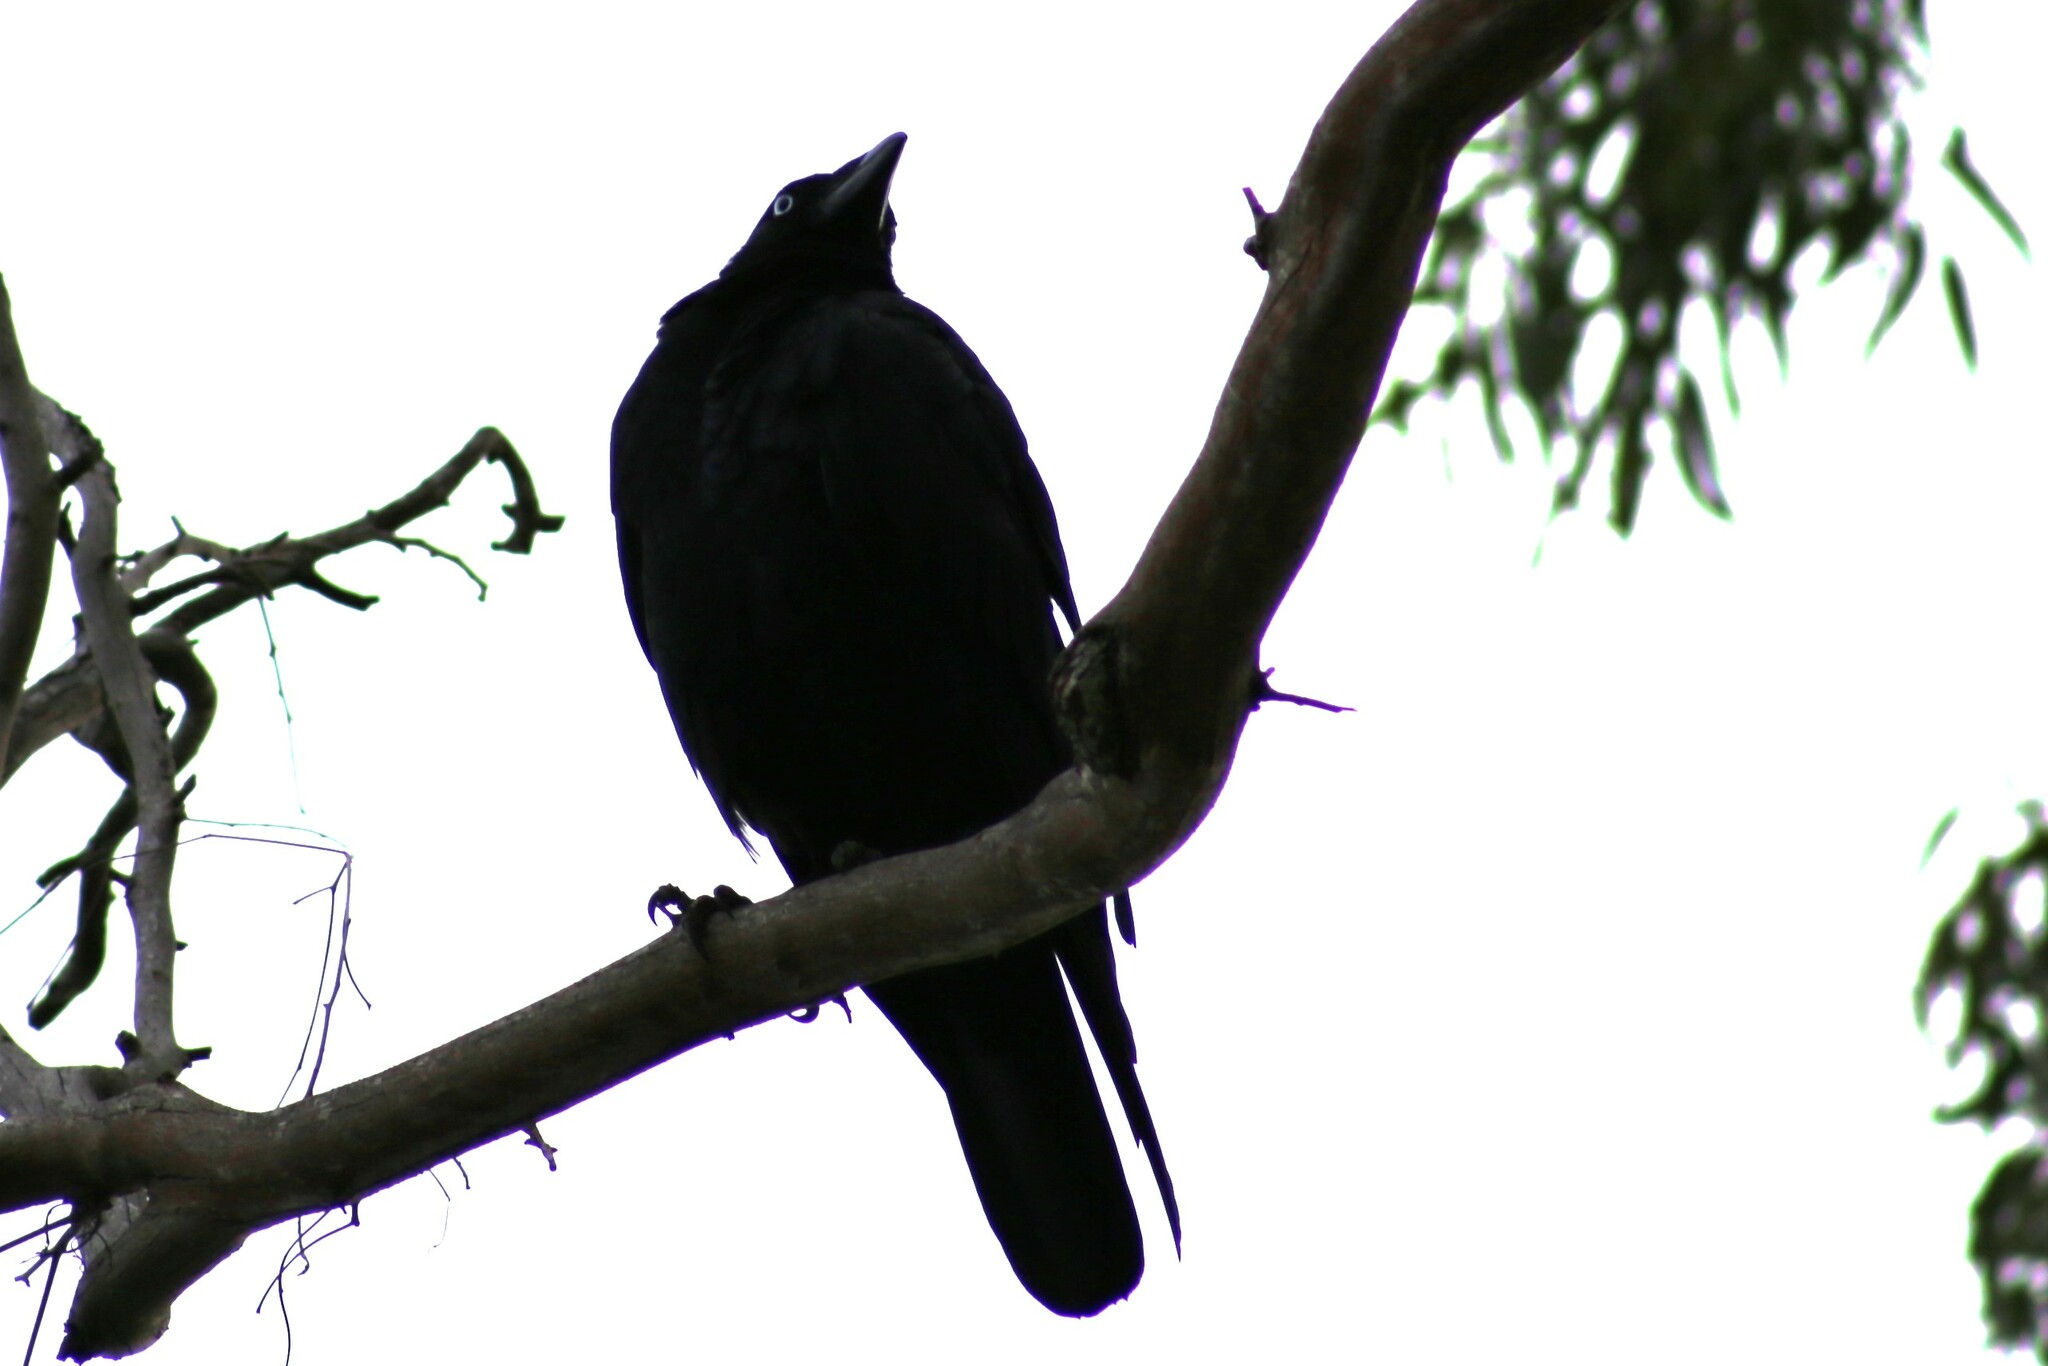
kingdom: Animalia
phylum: Chordata
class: Aves
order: Passeriformes
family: Corvidae
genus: Corvus
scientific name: Corvus orru
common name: Torresian crow
